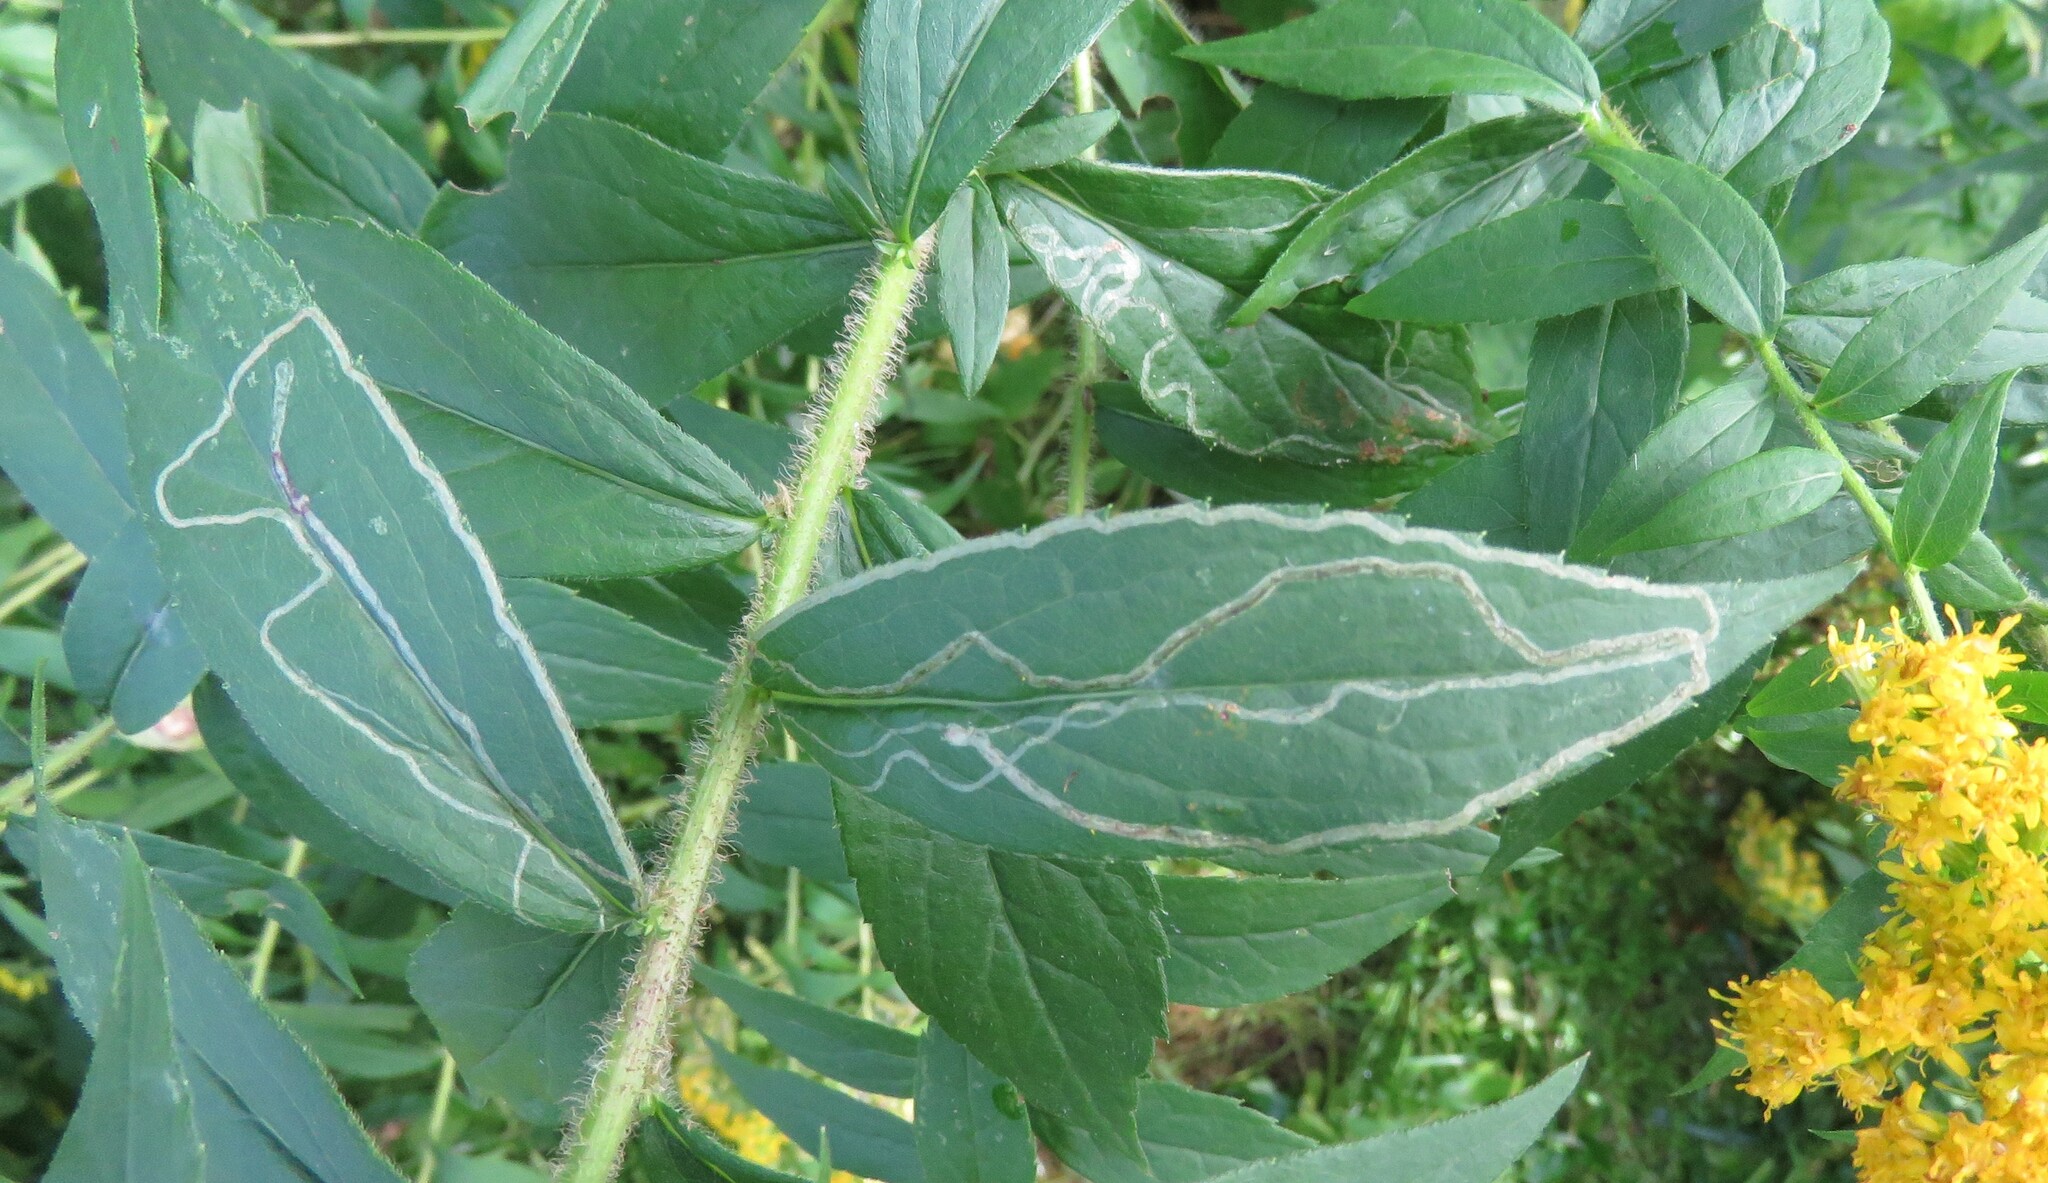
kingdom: Animalia
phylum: Arthropoda
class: Insecta
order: Diptera
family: Agromyzidae
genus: Ophiomyia
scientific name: Ophiomyia maura
